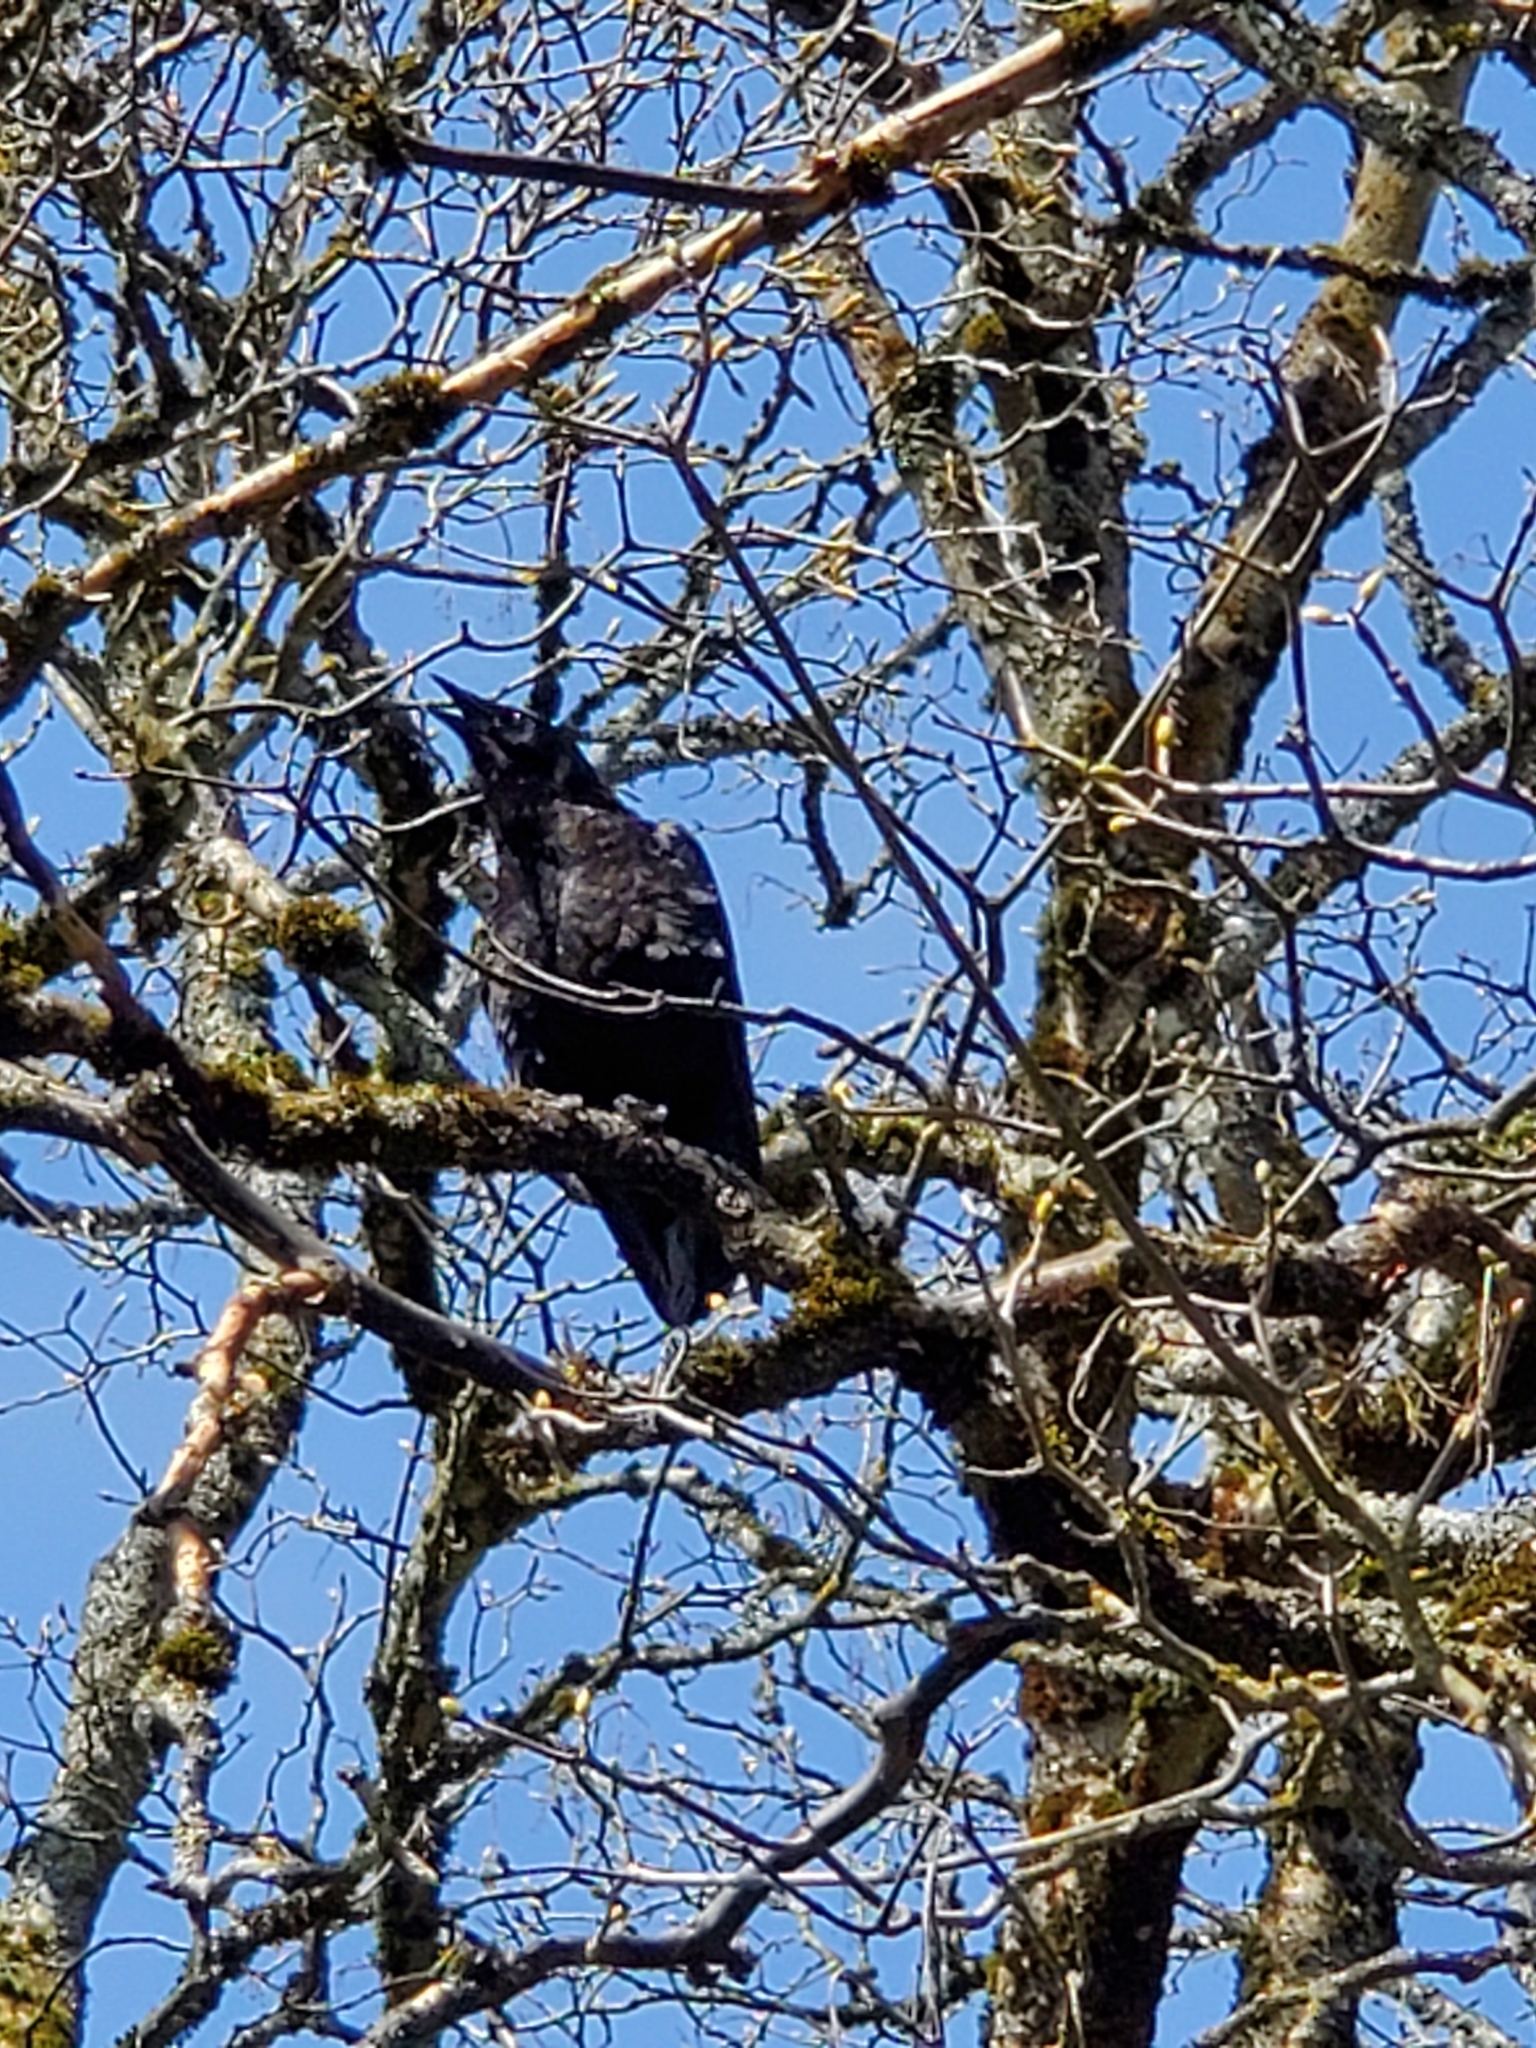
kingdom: Animalia
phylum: Chordata
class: Aves
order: Passeriformes
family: Corvidae
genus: Corvus
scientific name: Corvus brachyrhynchos
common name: American crow
